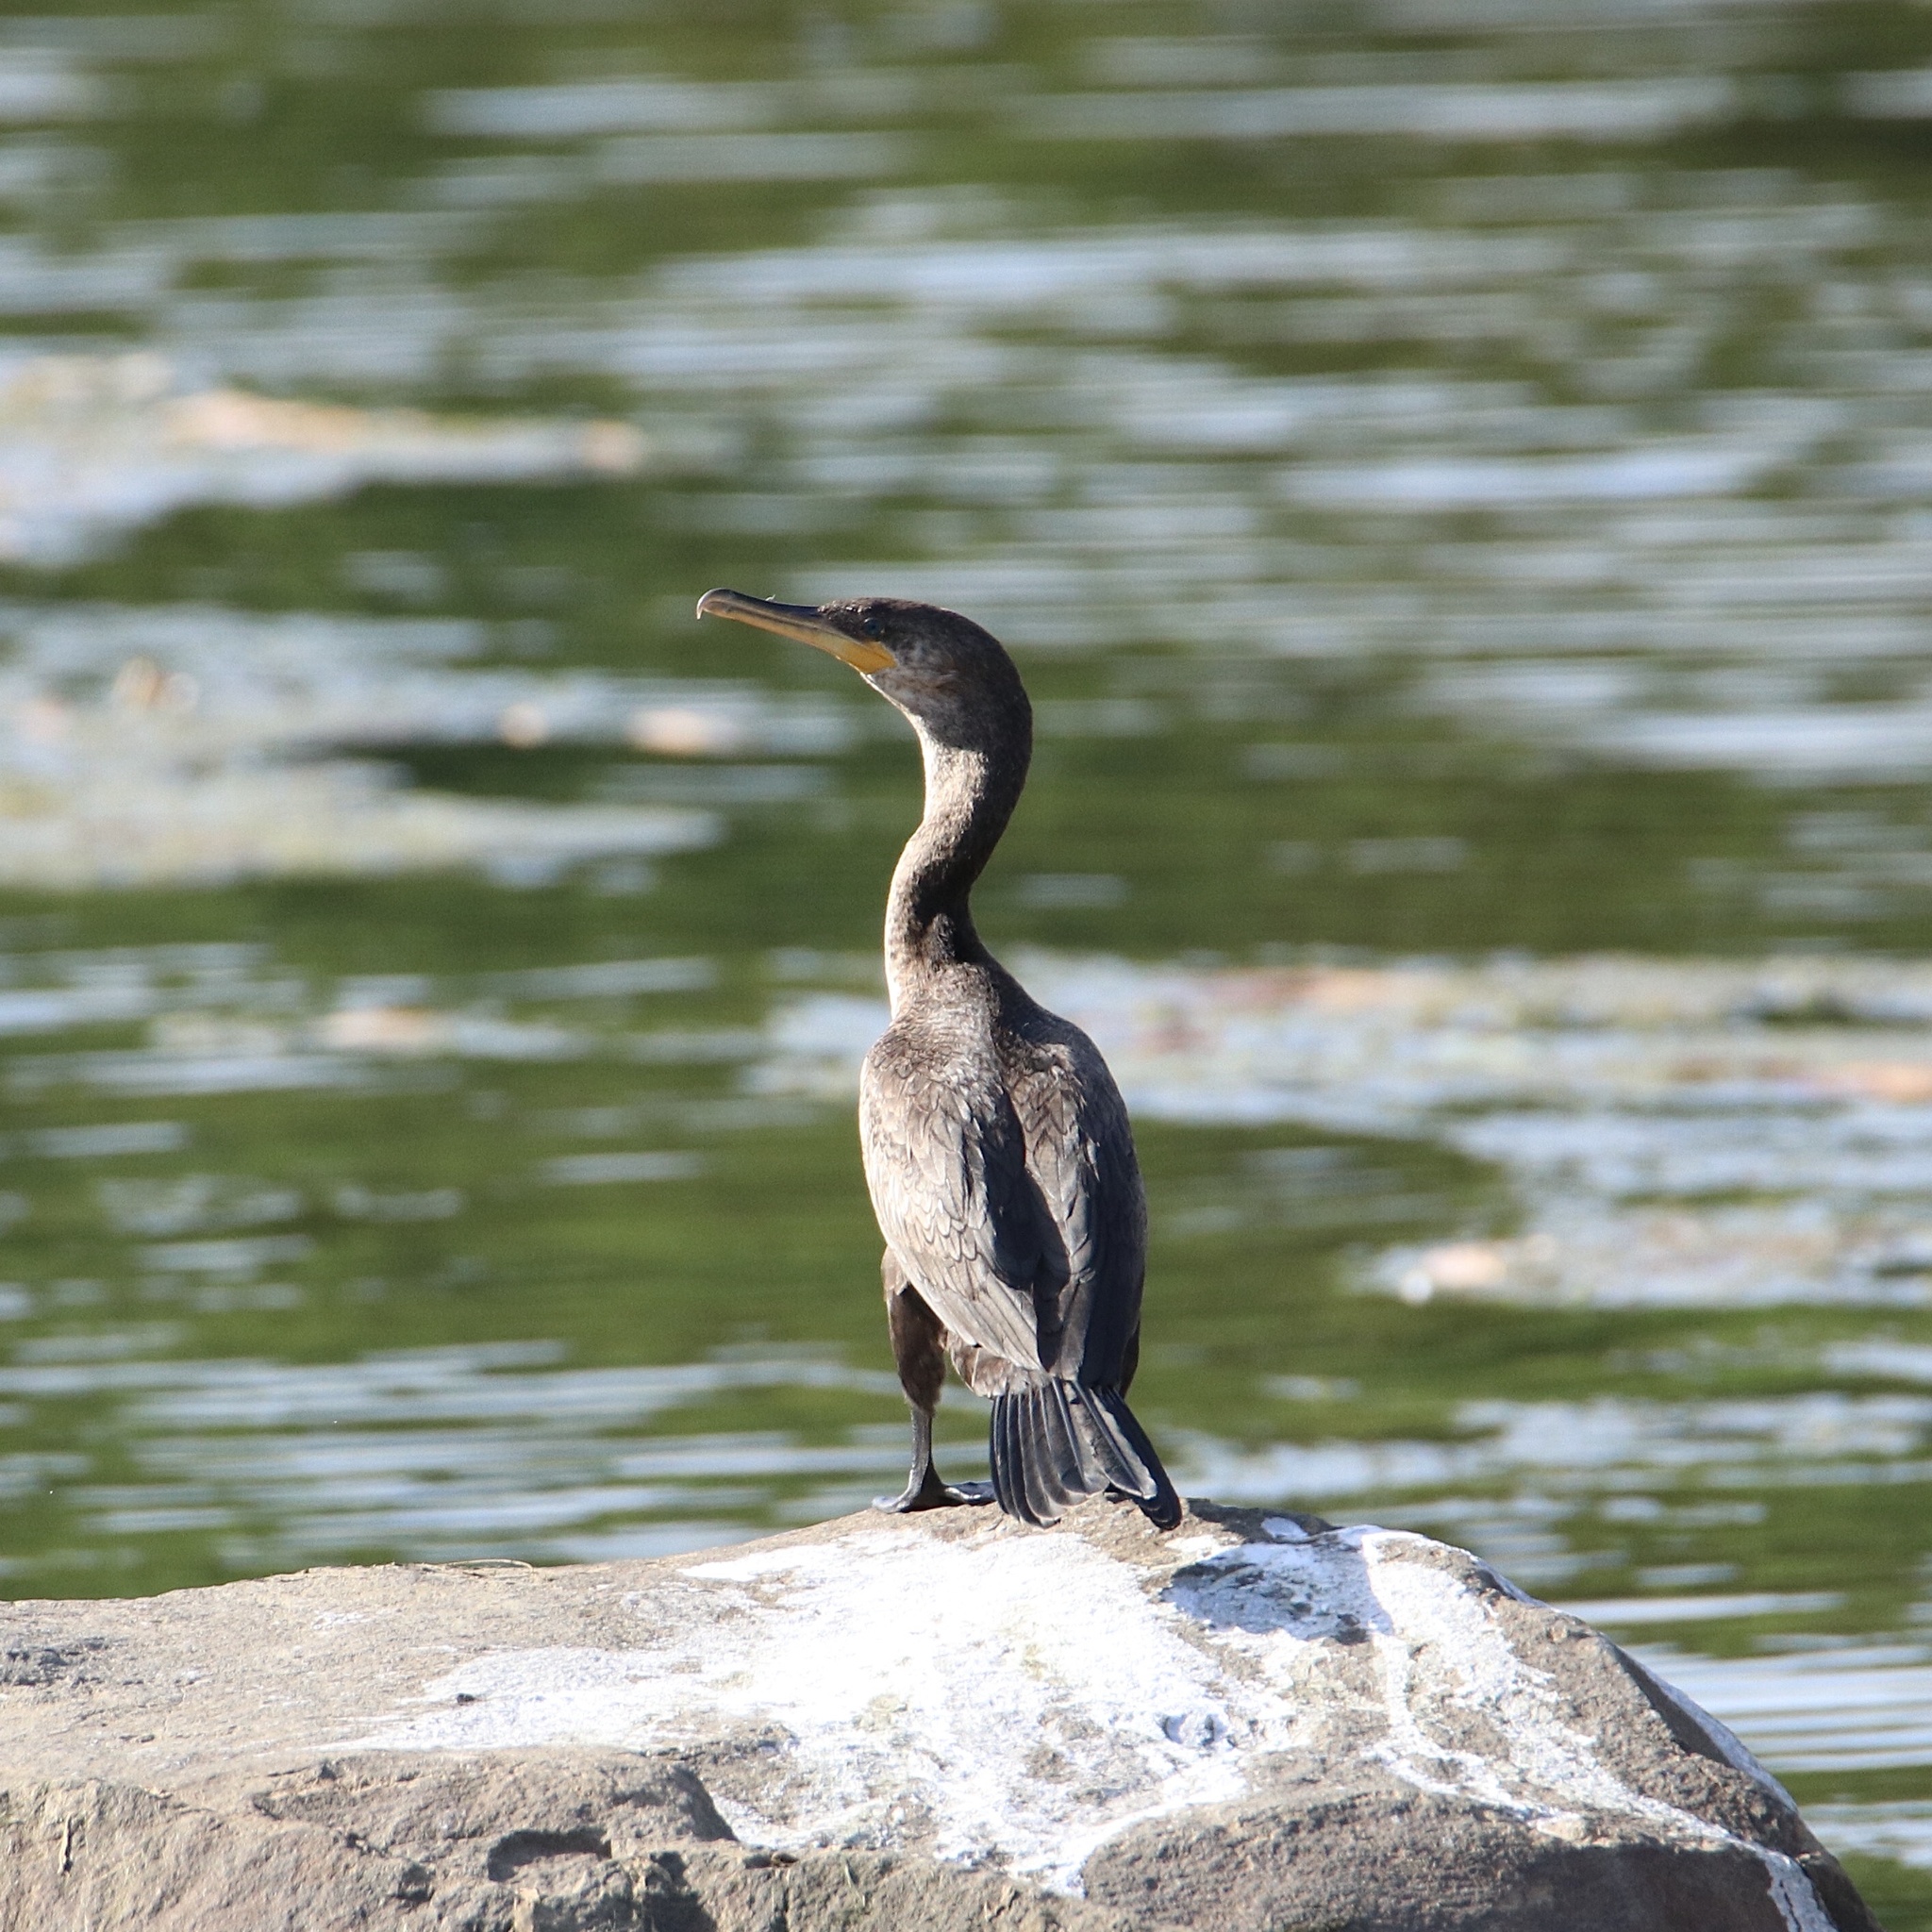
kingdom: Animalia
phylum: Chordata
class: Aves
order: Suliformes
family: Phalacrocoracidae
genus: Phalacrocorax
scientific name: Phalacrocorax brasilianus
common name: Neotropic cormorant
